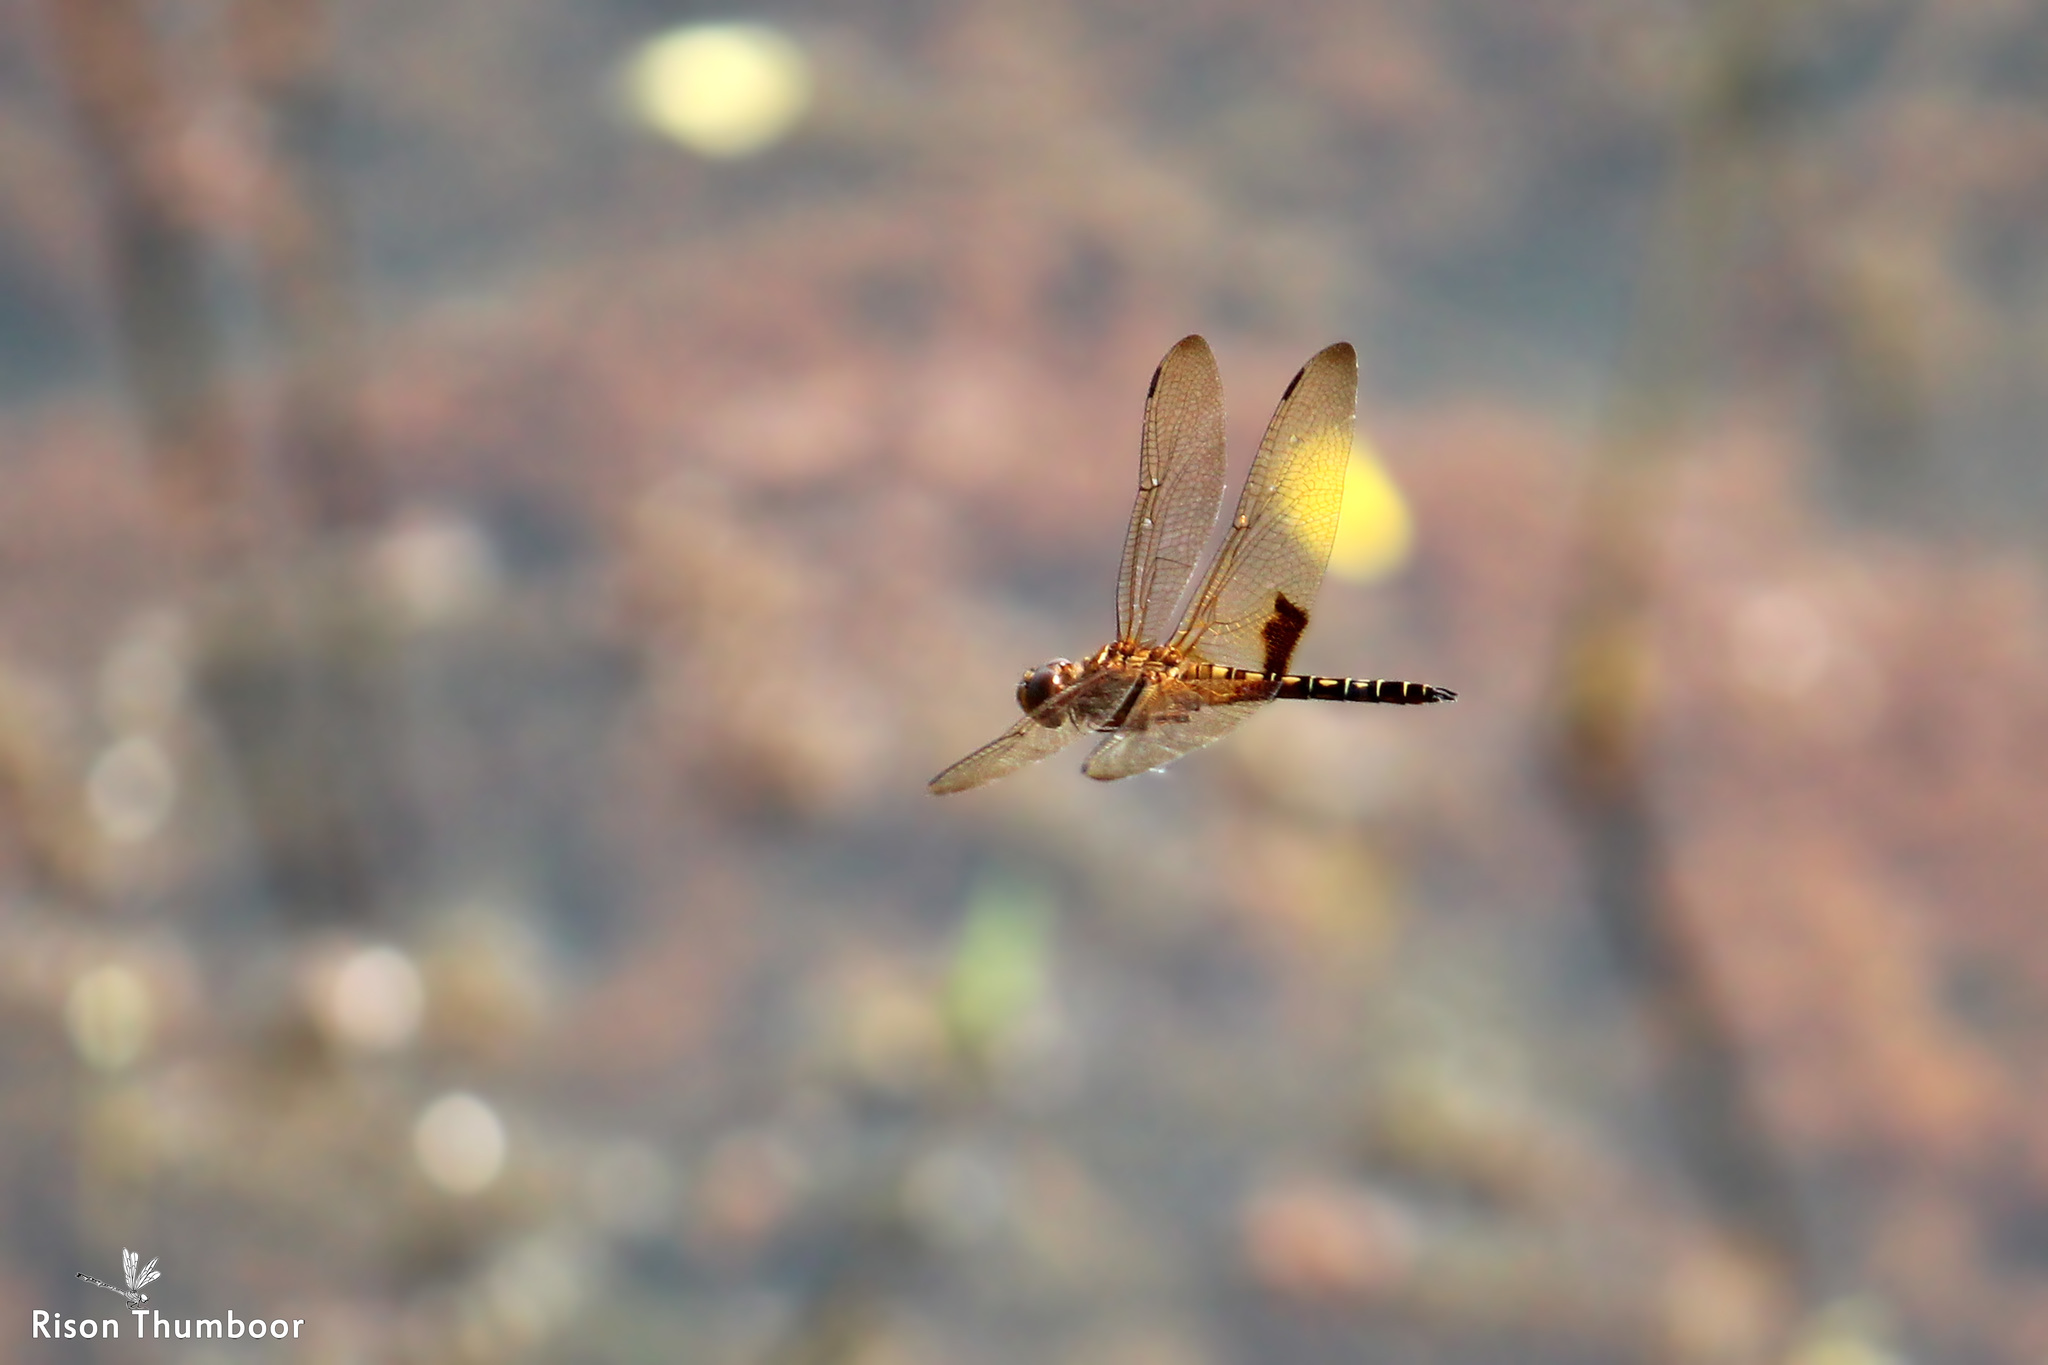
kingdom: Animalia
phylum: Arthropoda
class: Insecta
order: Odonata
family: Libellulidae
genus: Hydrobasileus
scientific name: Hydrobasileus croceus
